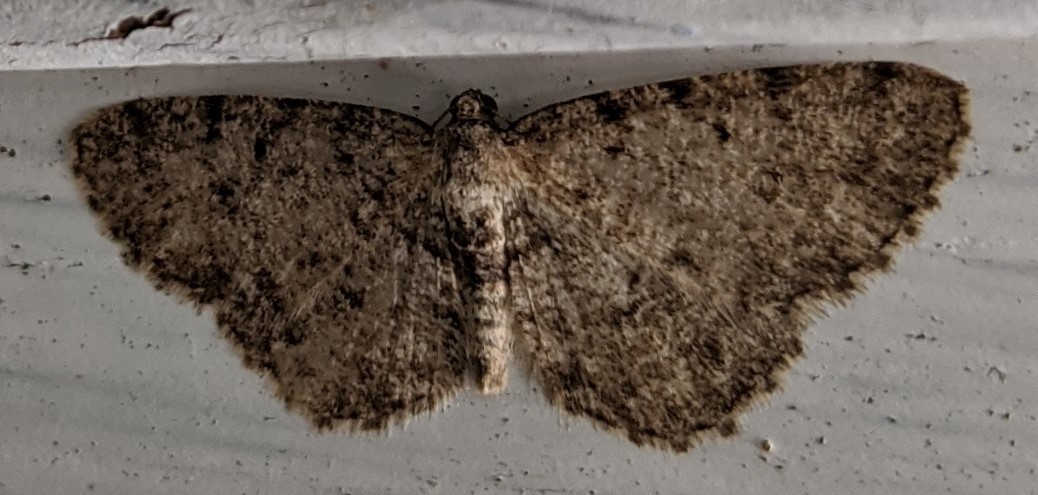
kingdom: Animalia
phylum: Arthropoda
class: Insecta
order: Lepidoptera
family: Geometridae
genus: Aethalura
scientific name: Aethalura intertexta
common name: Four-barred gray
